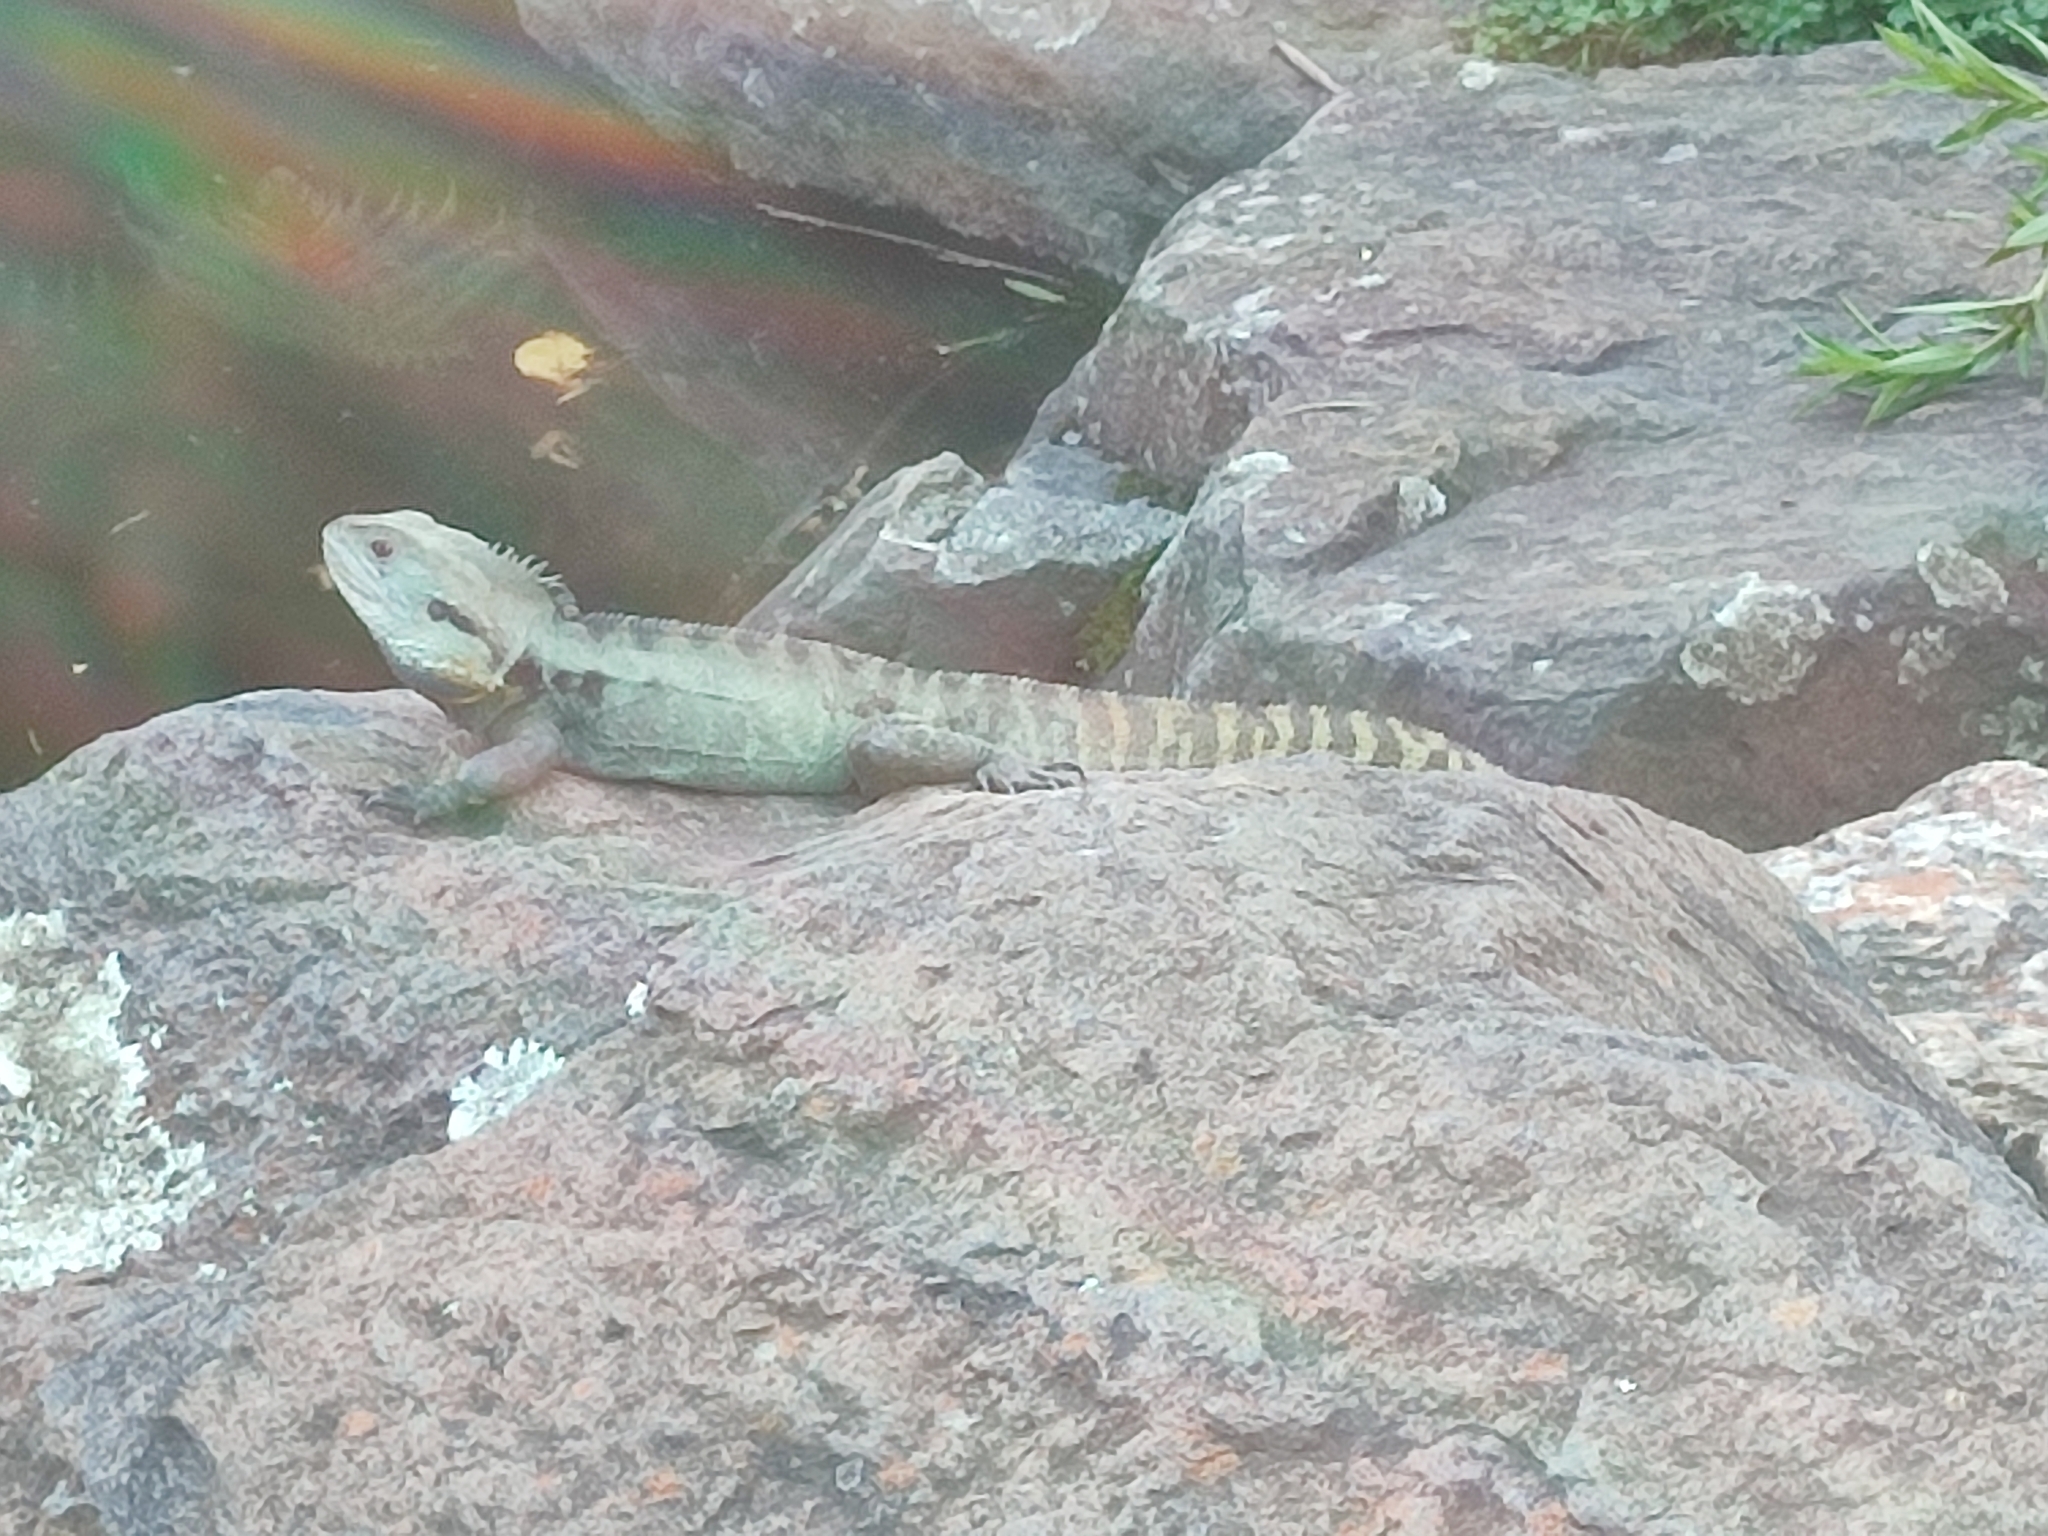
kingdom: Animalia
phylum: Chordata
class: Squamata
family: Agamidae
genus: Intellagama
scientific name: Intellagama lesueurii
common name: Eastern water dragon
